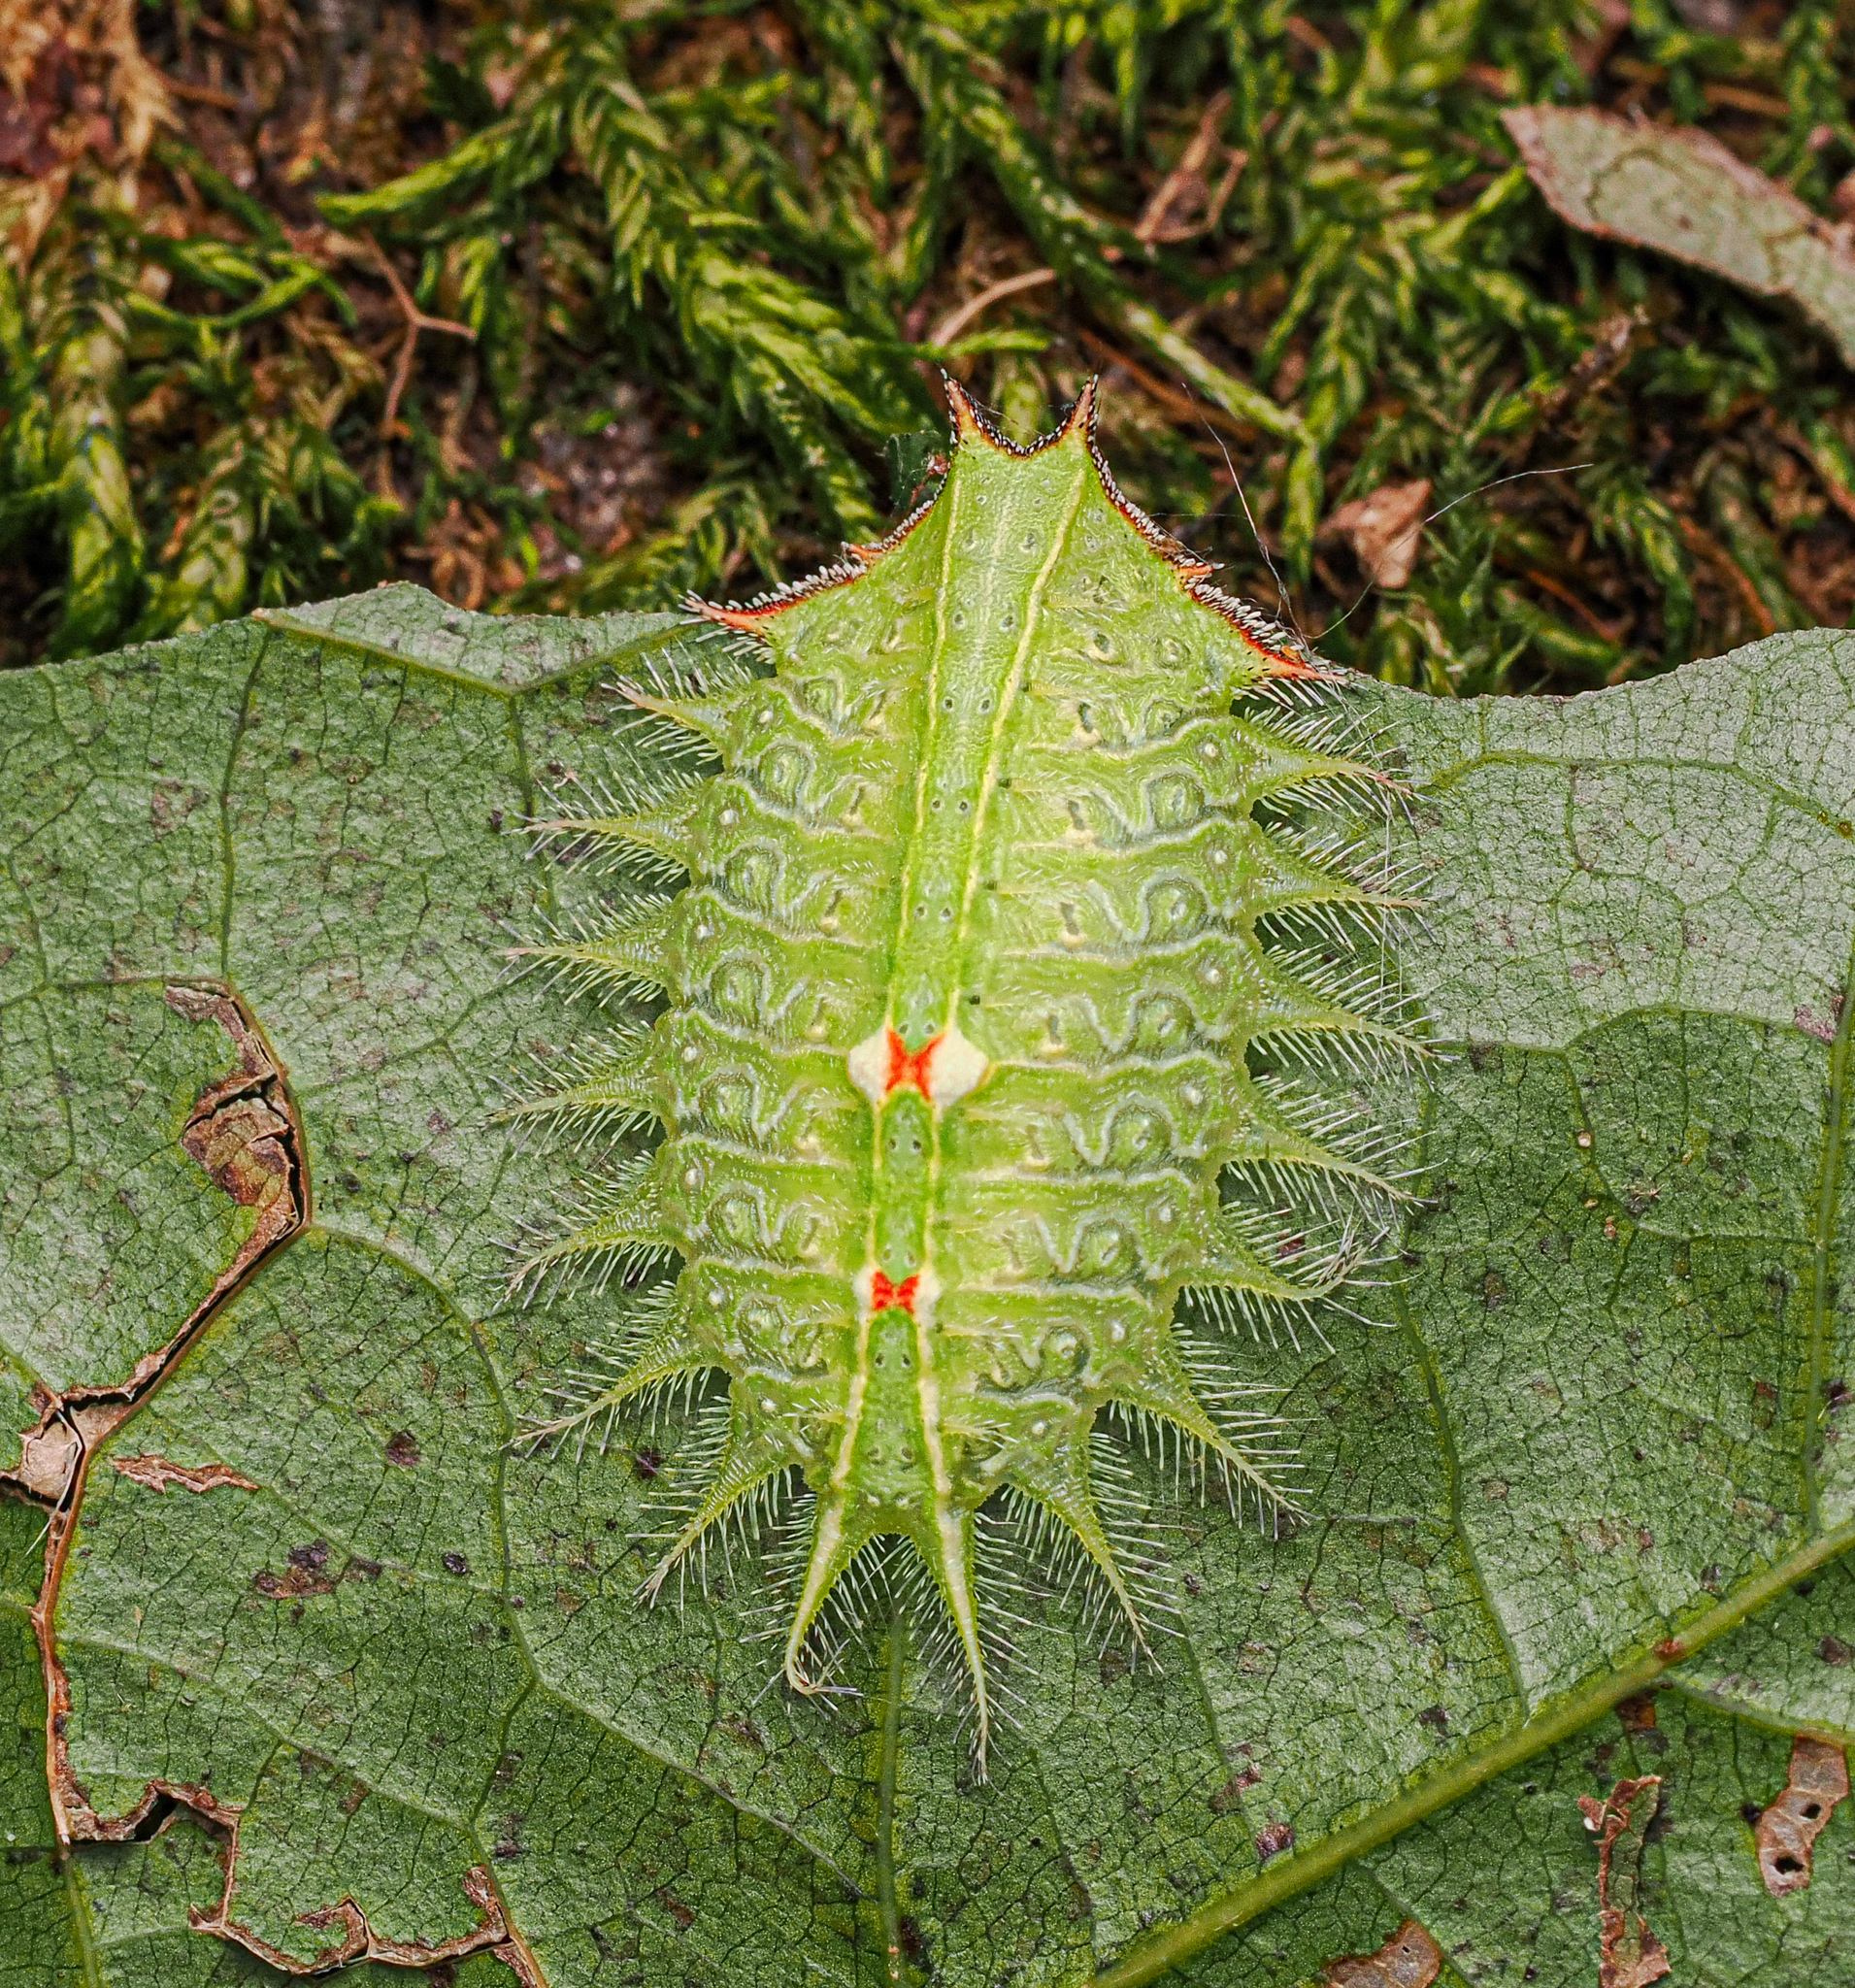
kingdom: Animalia
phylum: Arthropoda
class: Insecta
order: Lepidoptera
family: Limacodidae
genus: Isa
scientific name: Isa textula
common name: Crowned slug moth
